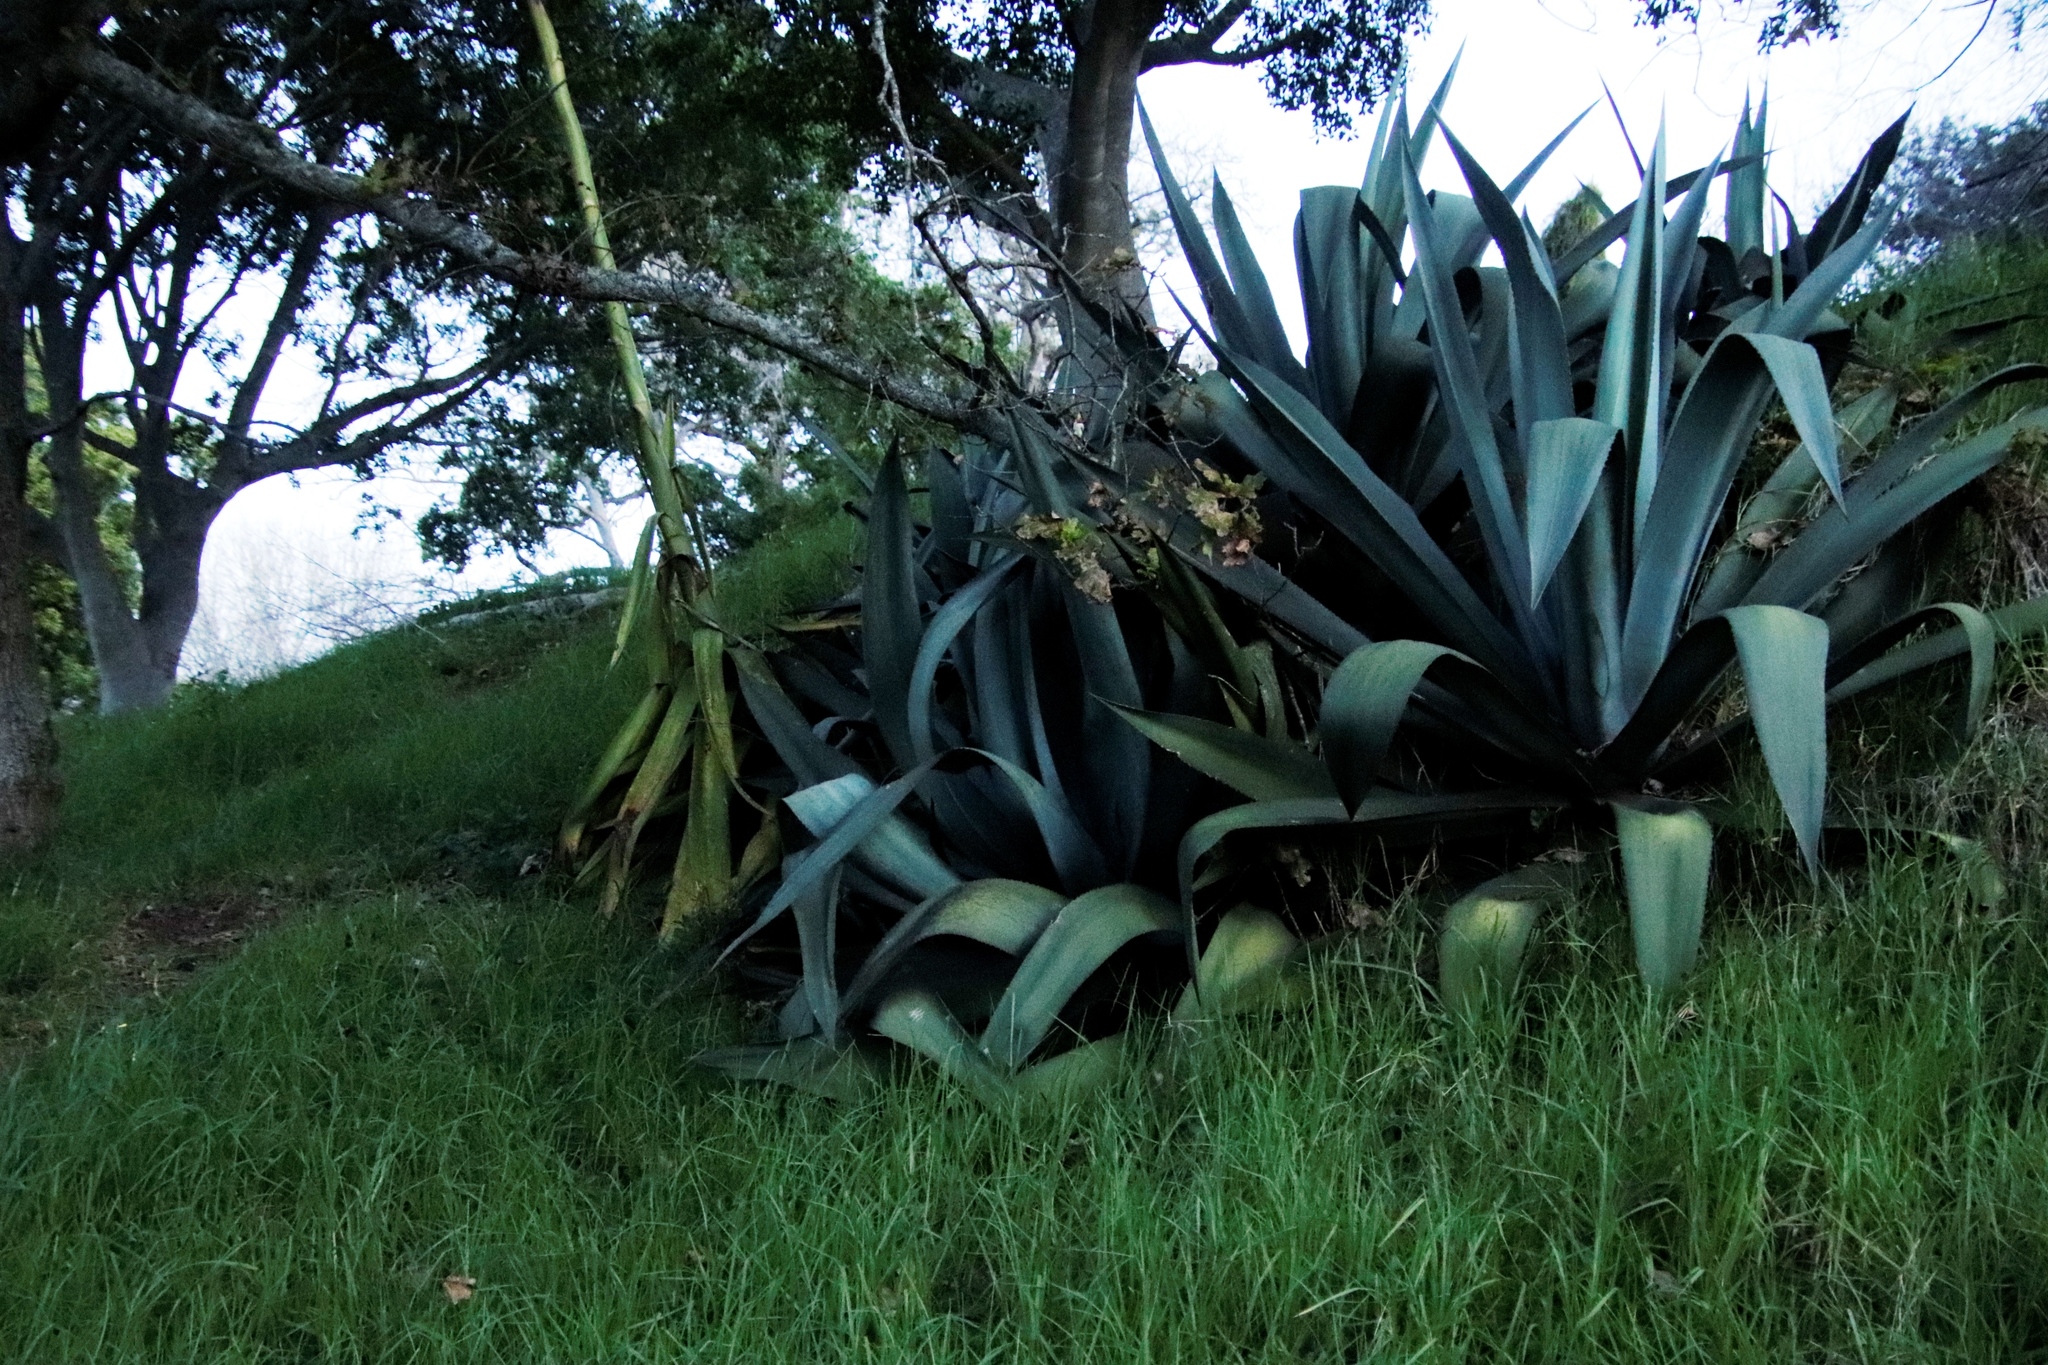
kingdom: Plantae
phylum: Tracheophyta
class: Liliopsida
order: Asparagales
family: Asparagaceae
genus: Agave
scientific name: Agave americana
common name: Centuryplant
